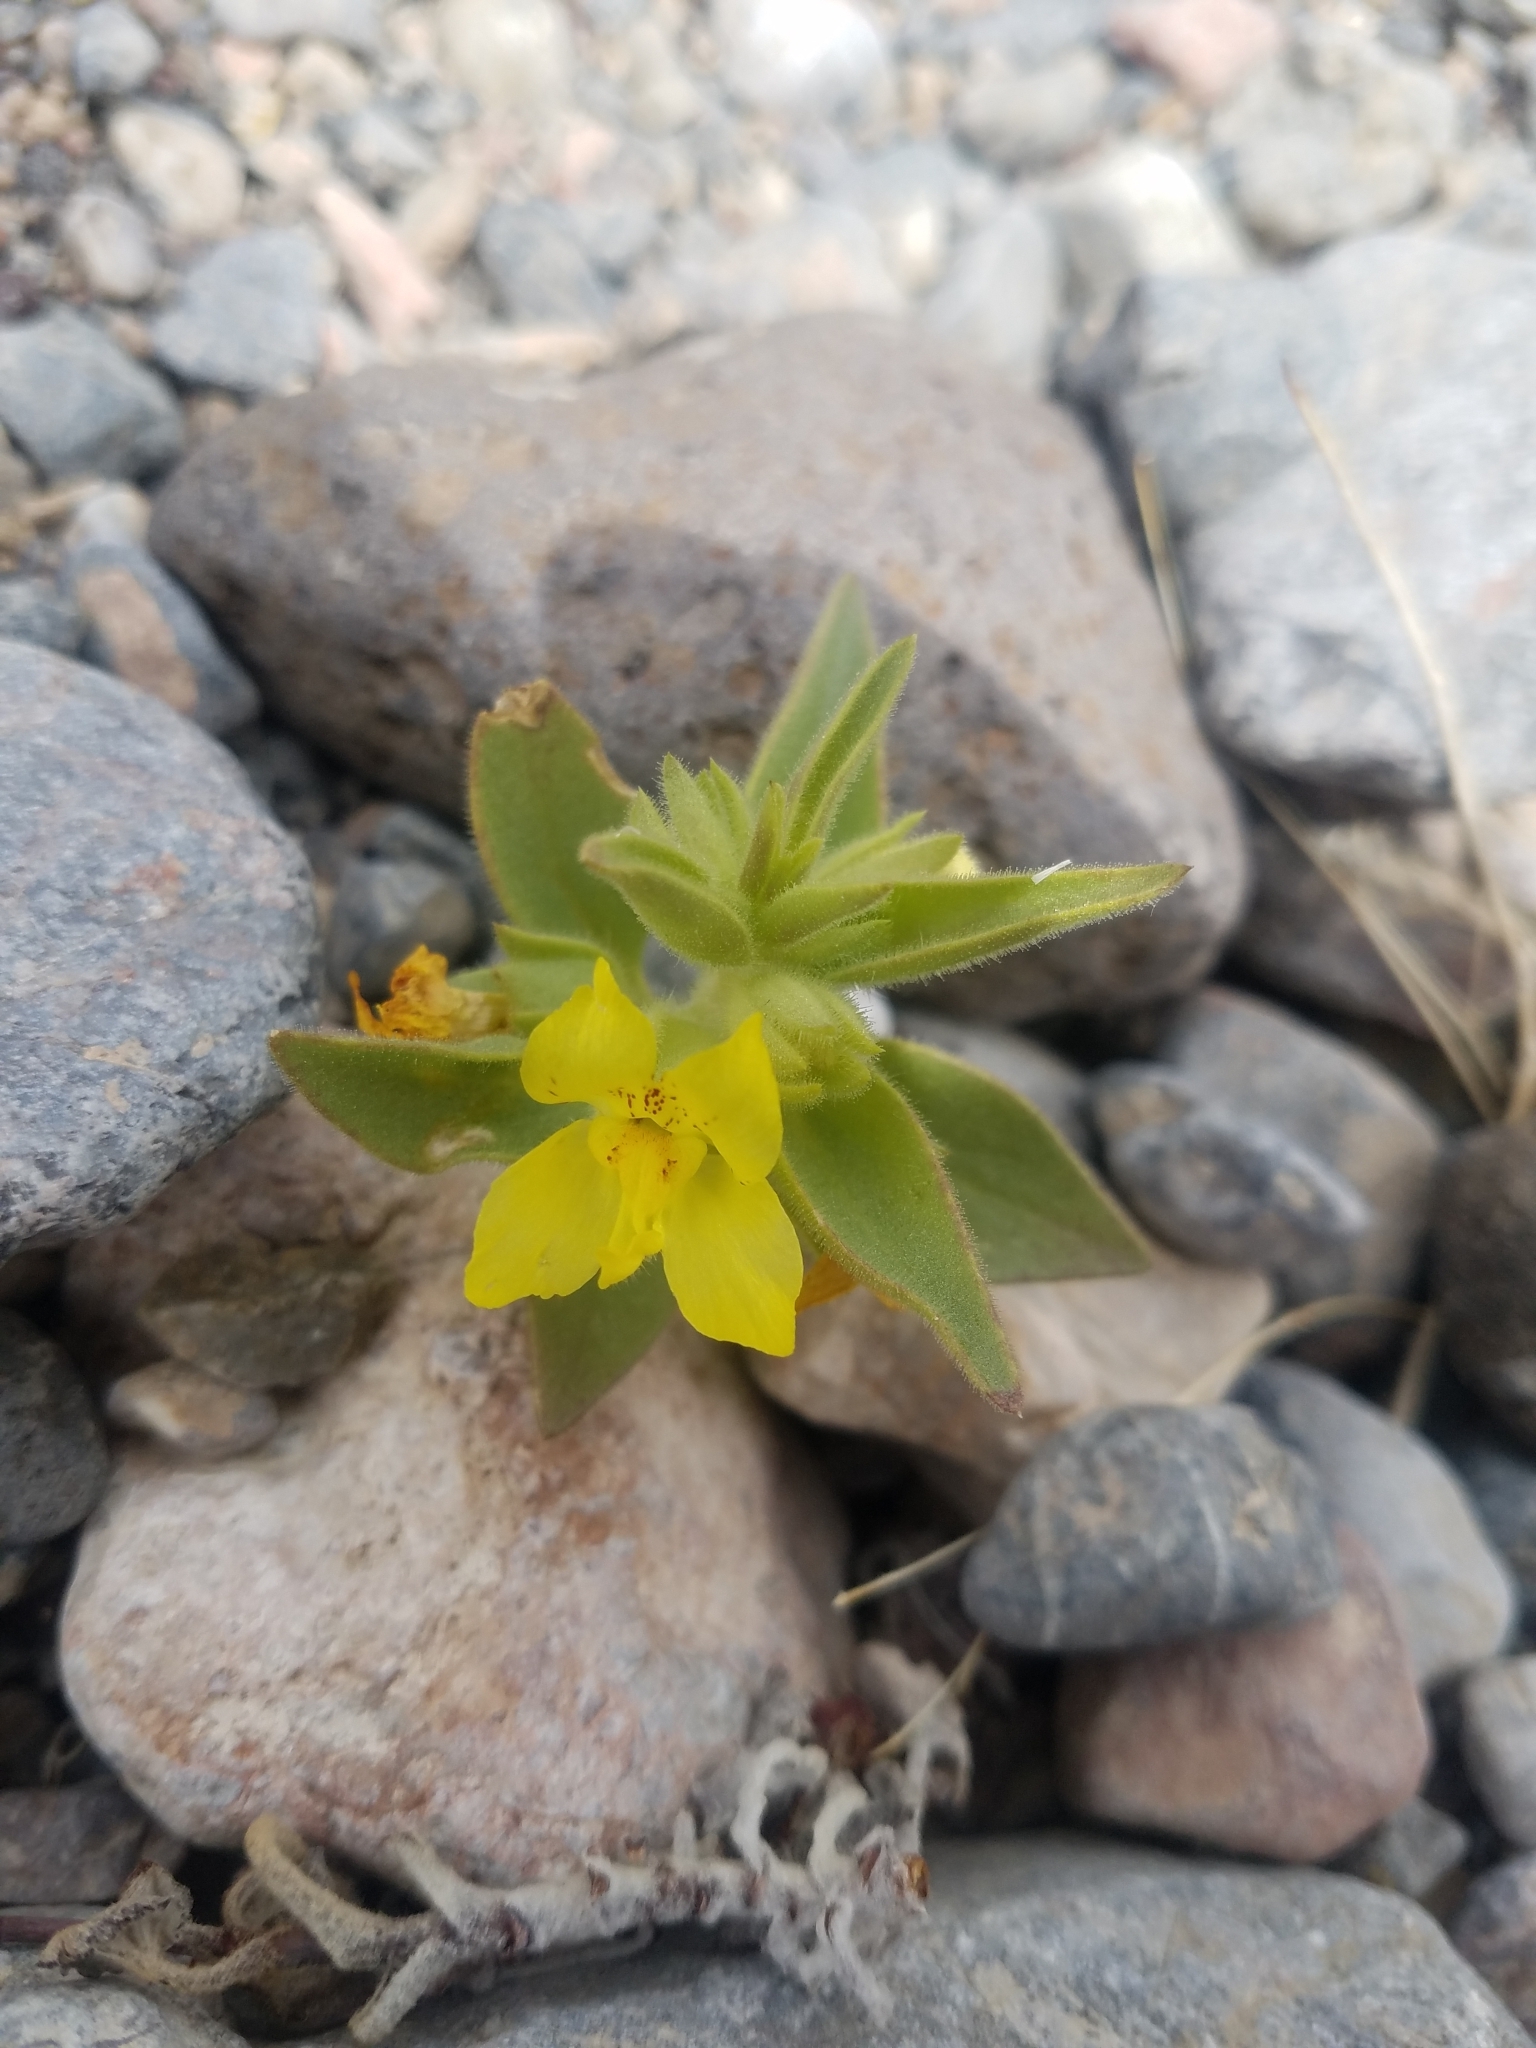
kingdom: Plantae
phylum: Tracheophyta
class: Magnoliopsida
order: Lamiales
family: Plantaginaceae
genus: Mohavea
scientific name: Mohavea breviflora
